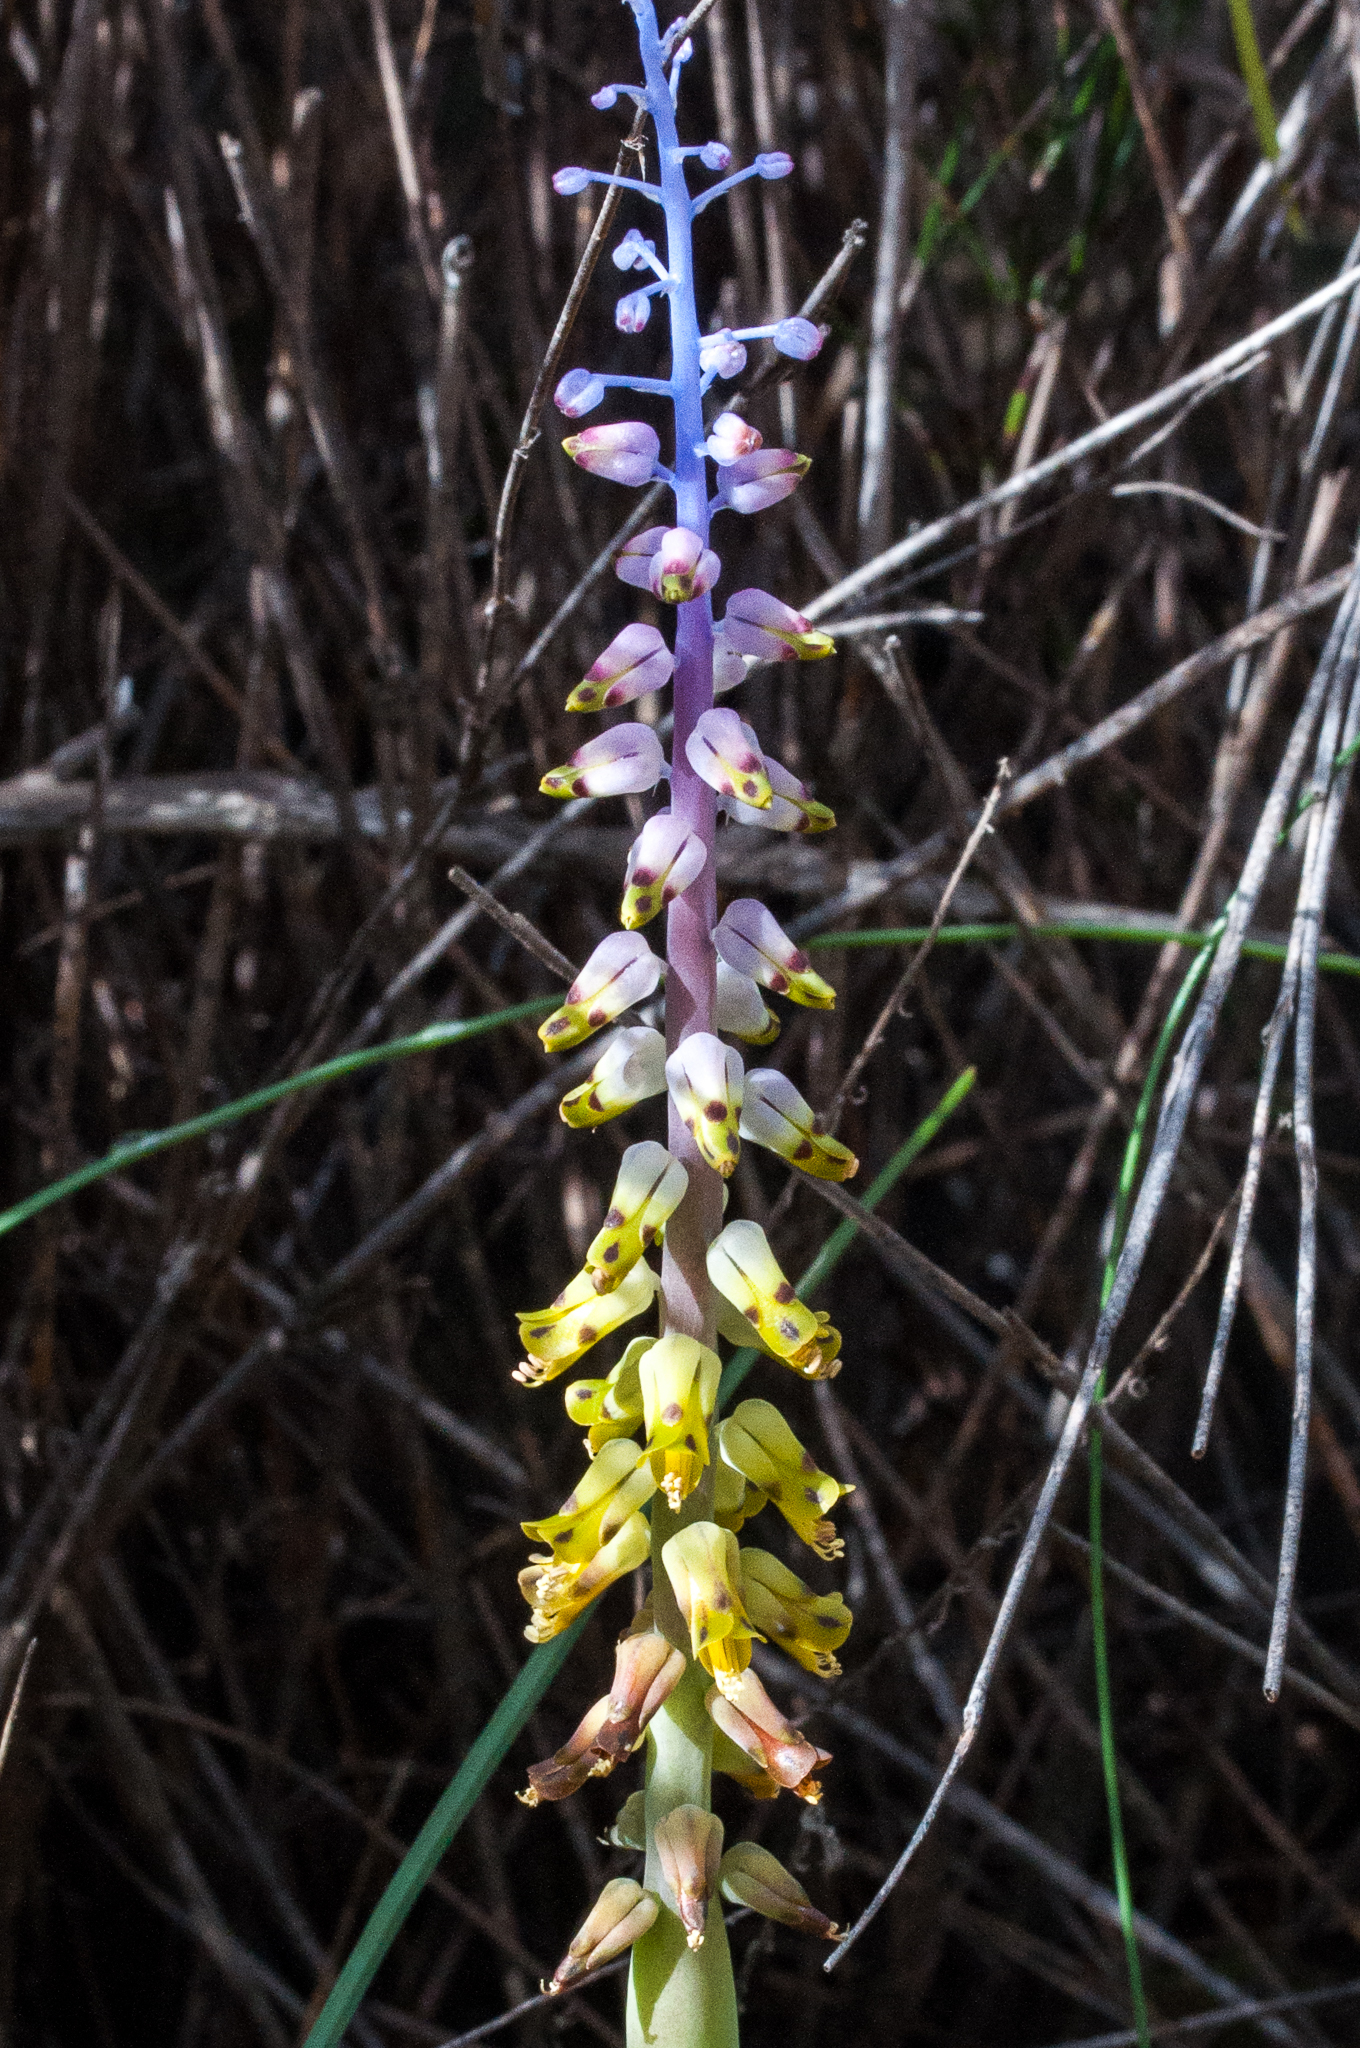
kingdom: Plantae
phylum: Tracheophyta
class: Liliopsida
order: Asparagales
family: Asparagaceae
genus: Lachenalia
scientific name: Lachenalia mutabilis
